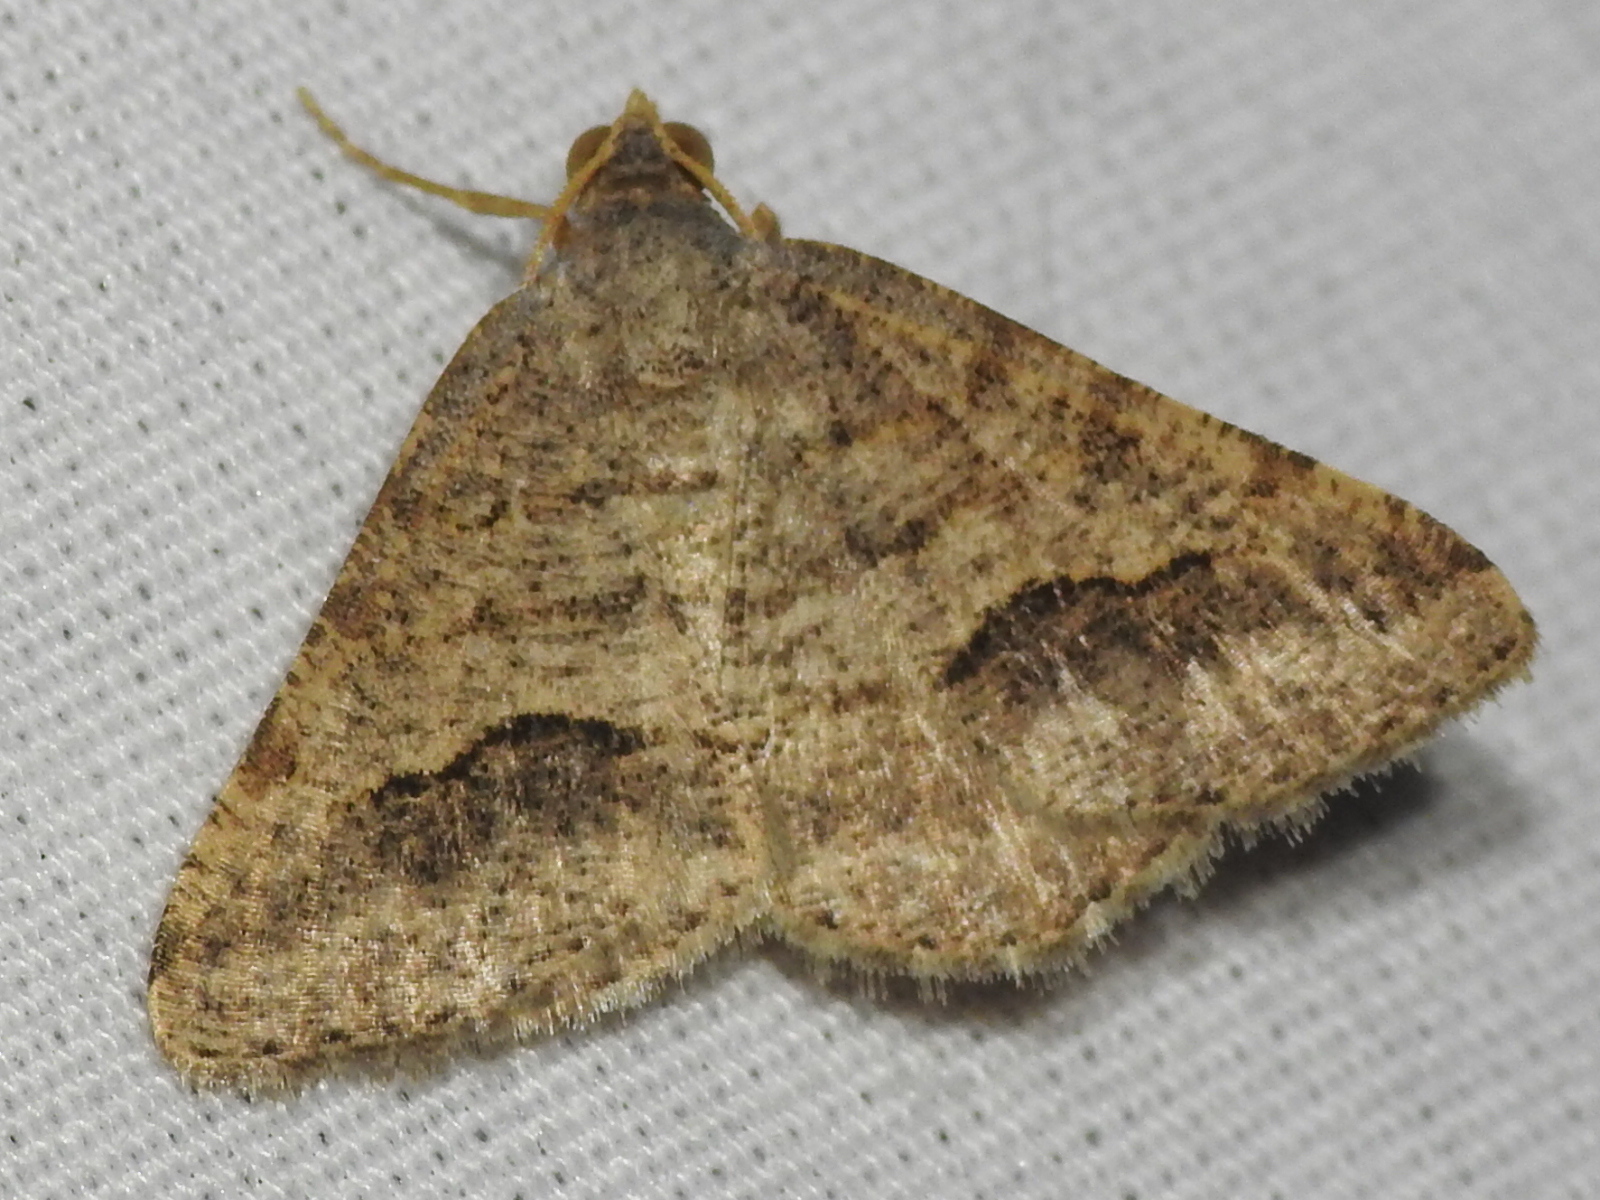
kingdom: Animalia
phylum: Arthropoda
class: Insecta
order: Lepidoptera
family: Geometridae
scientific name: Geometridae
